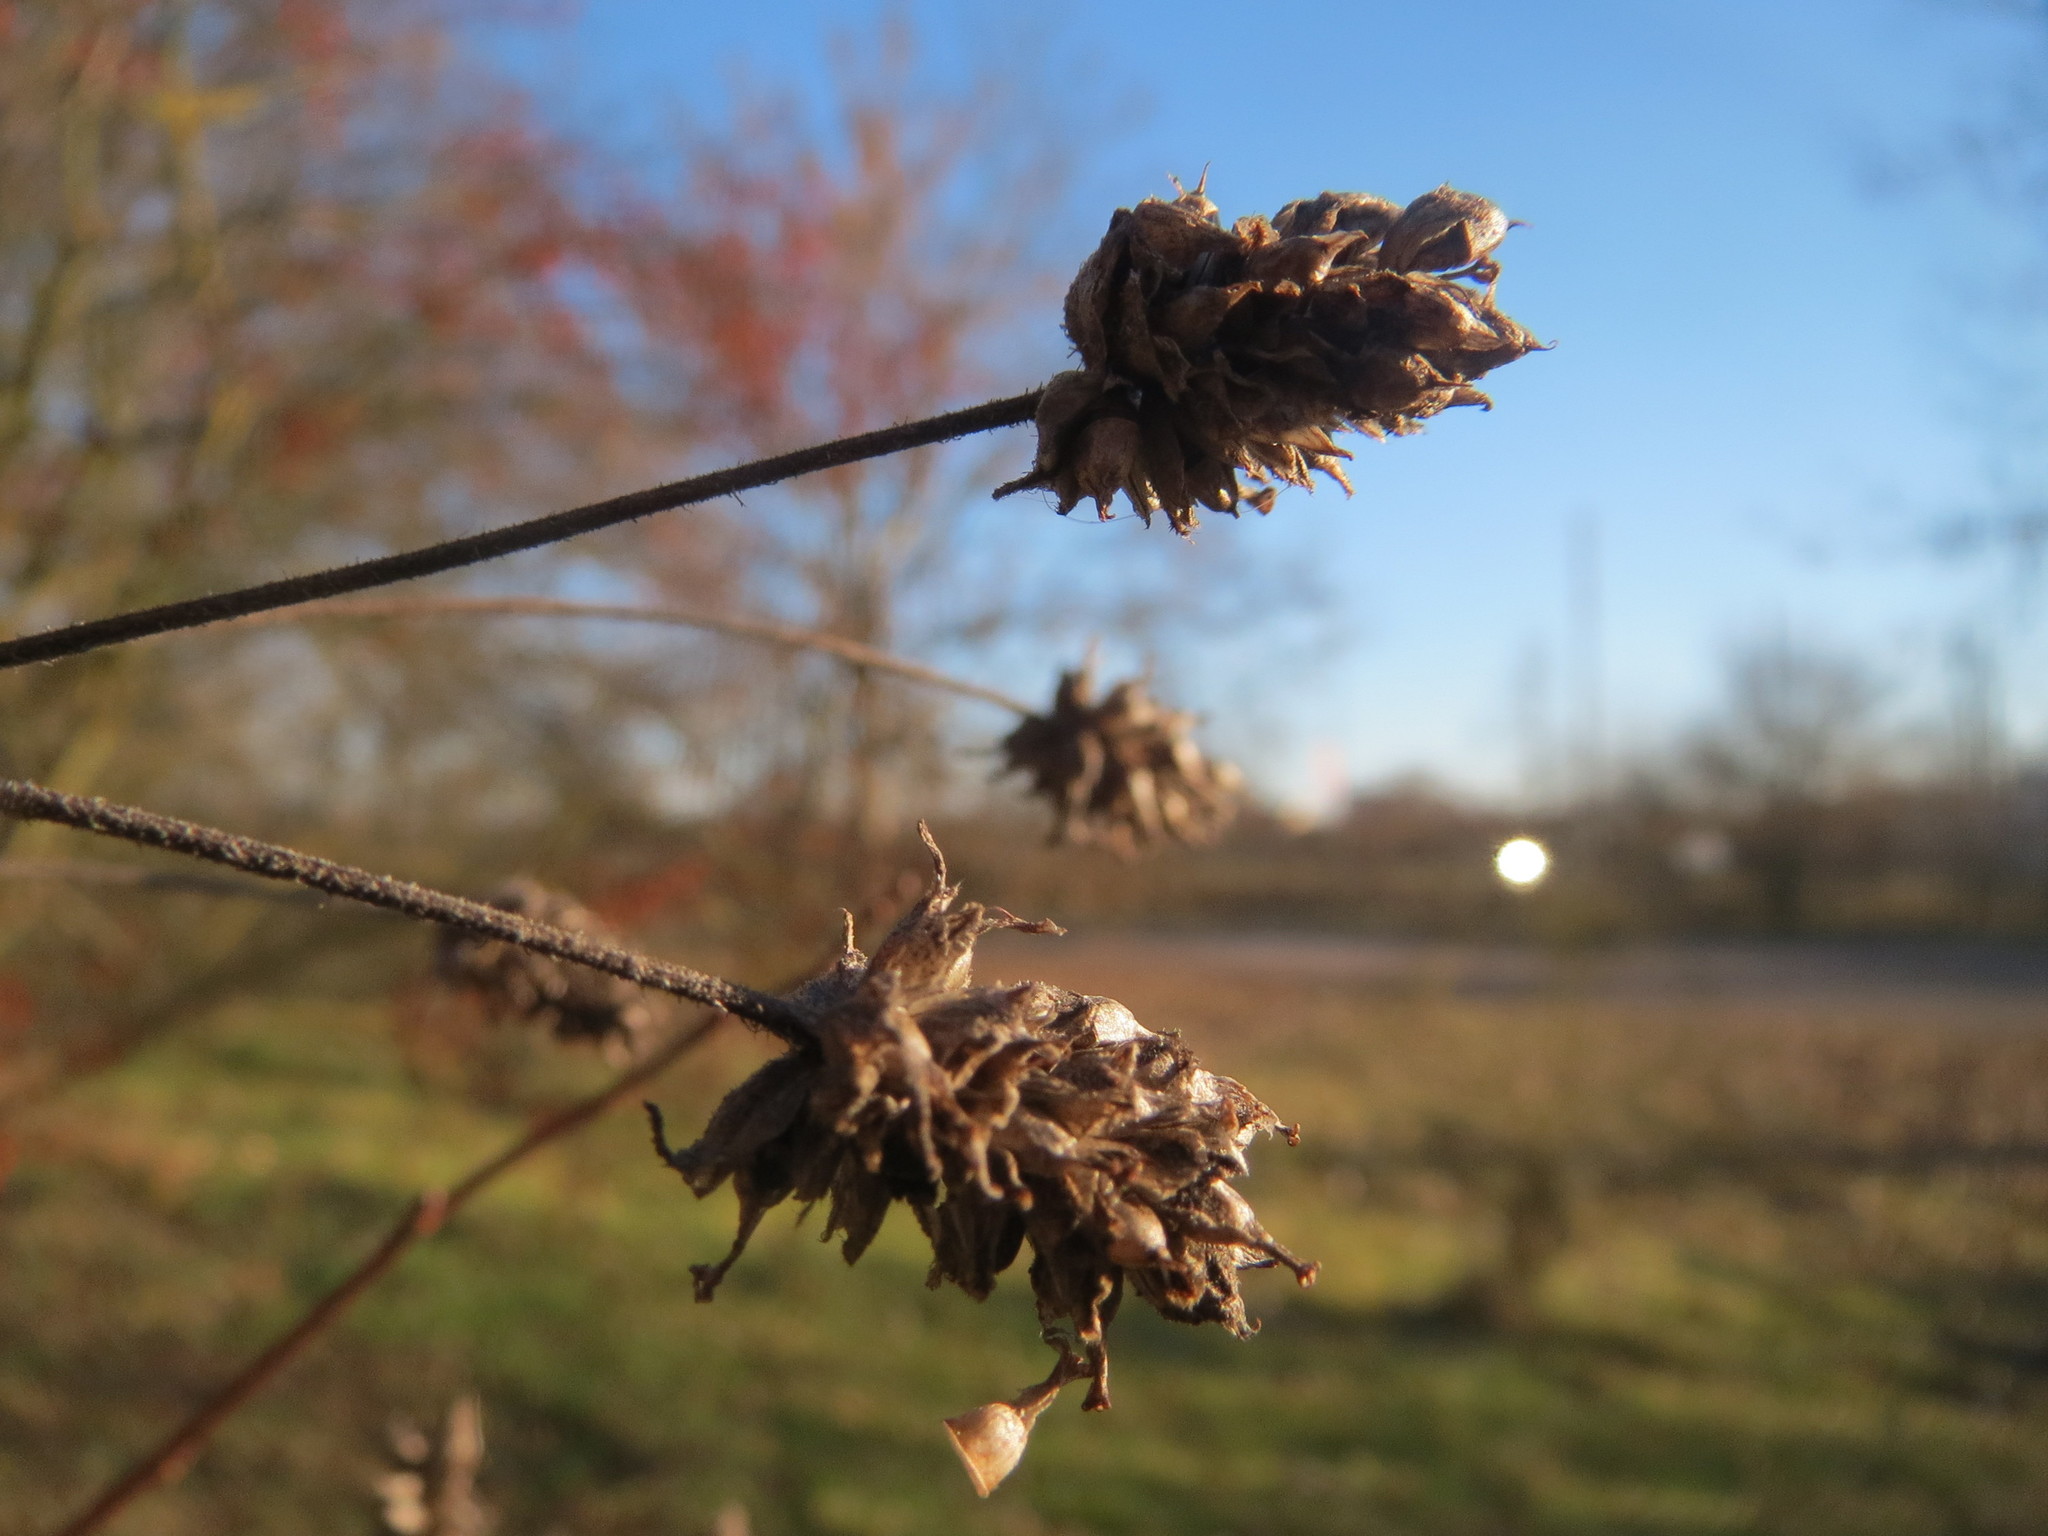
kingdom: Plantae
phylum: Tracheophyta
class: Magnoliopsida
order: Lamiales
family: Plantaginaceae
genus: Plantago
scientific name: Plantago arenaria
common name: Branched plantain
